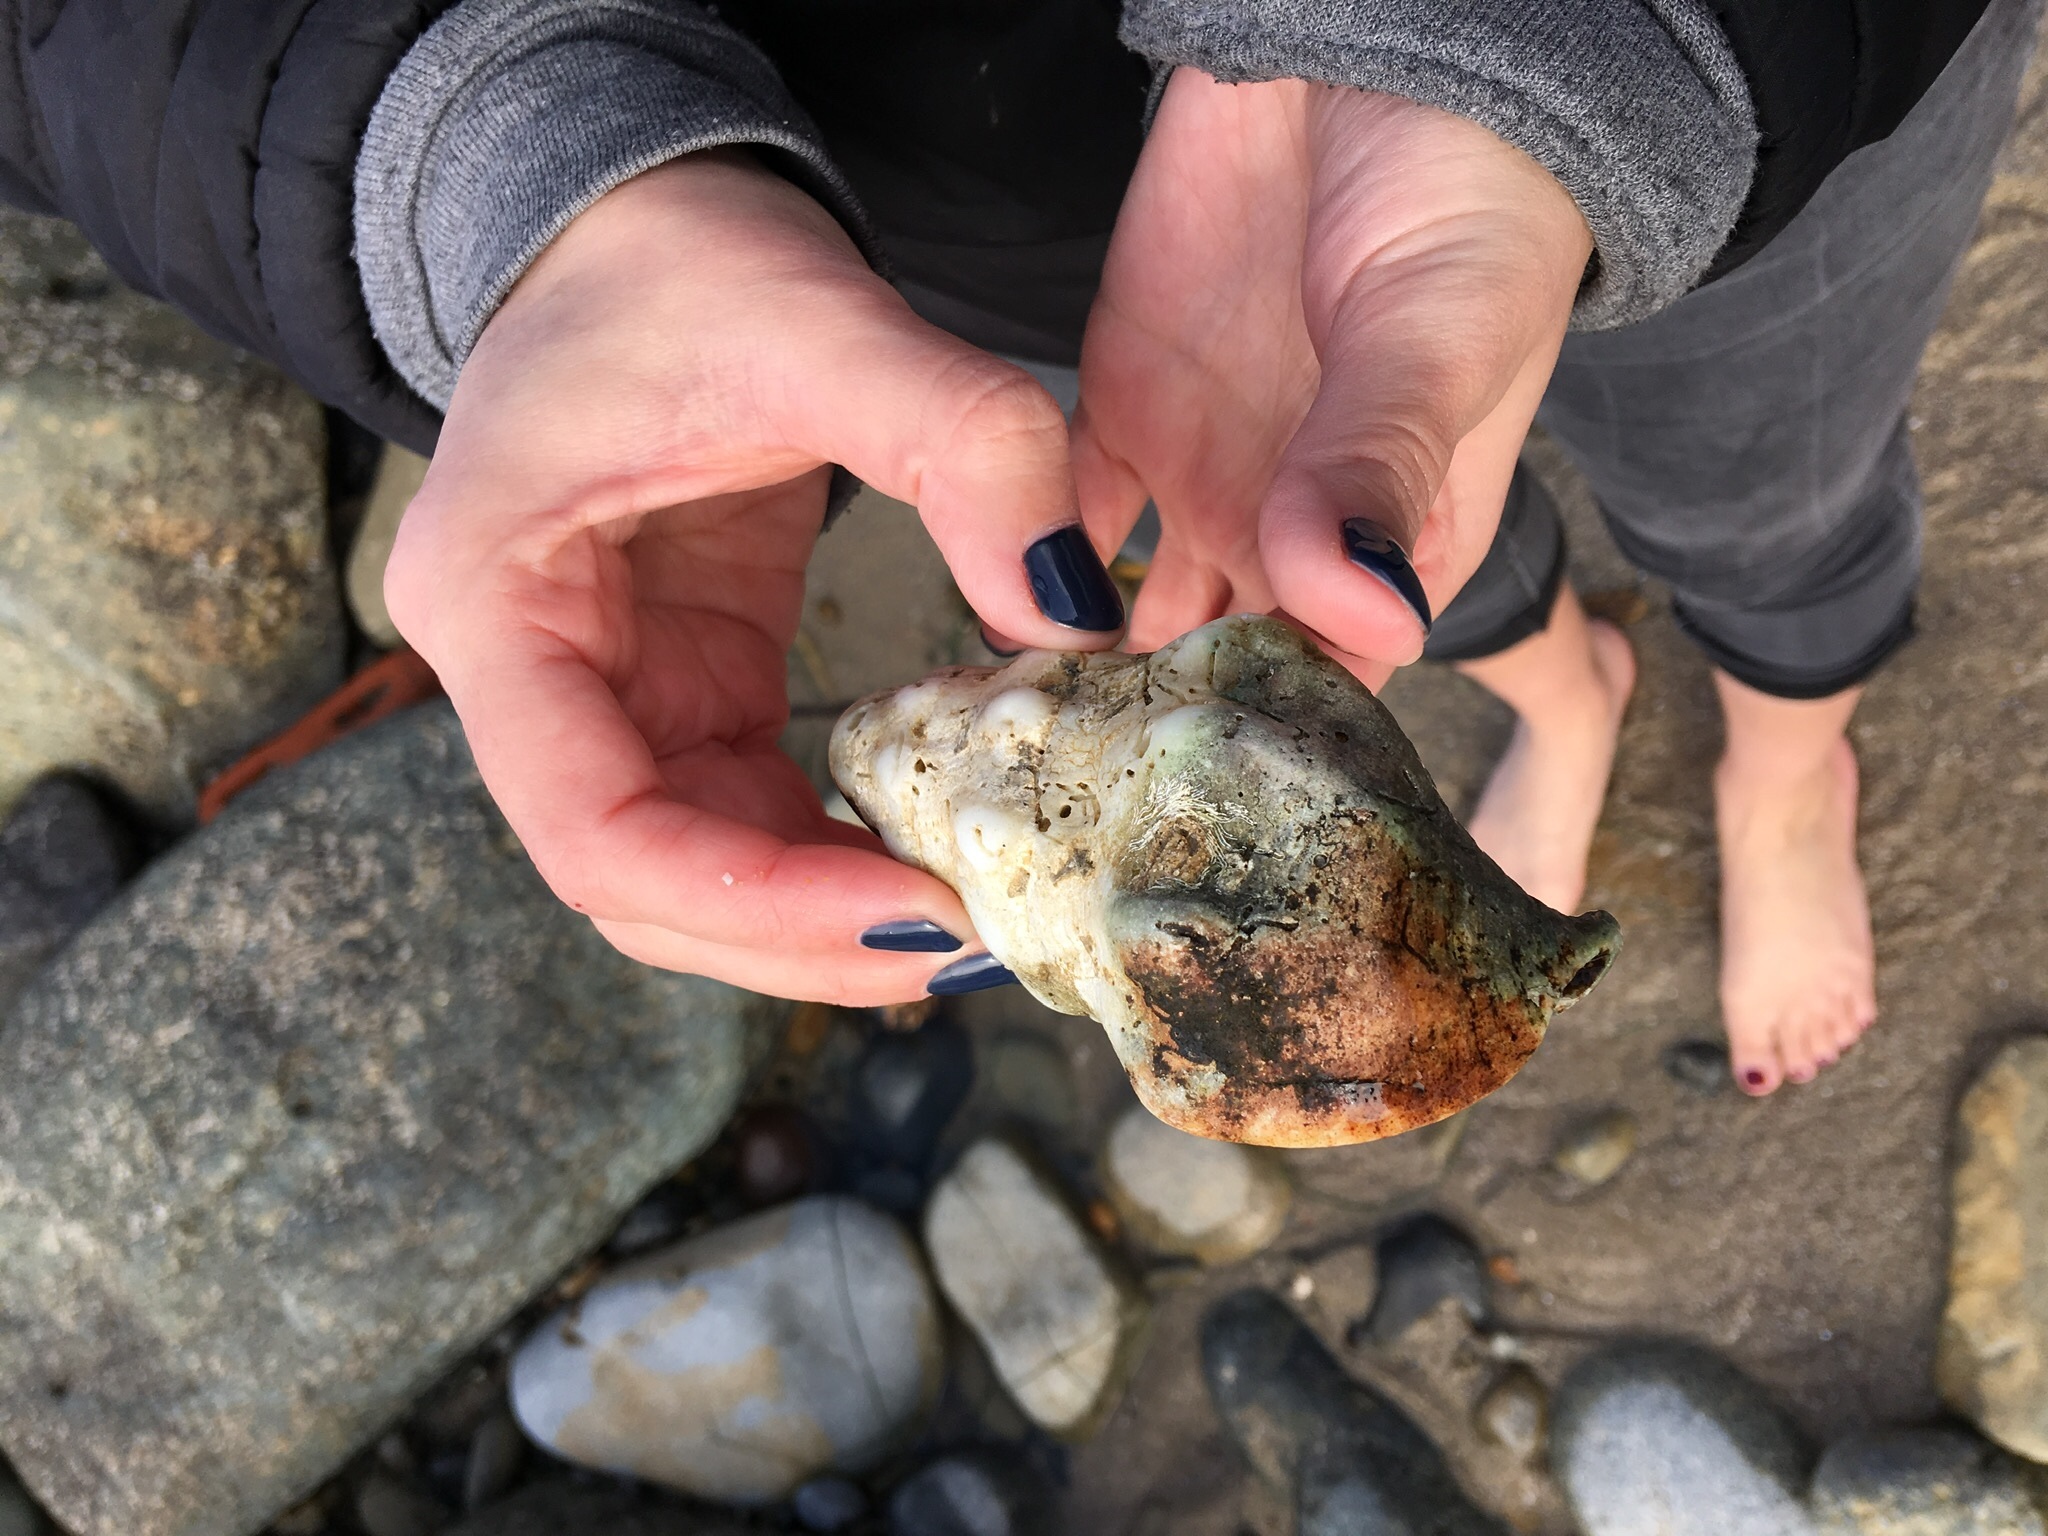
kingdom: Animalia
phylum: Mollusca
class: Gastropoda
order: Neogastropoda
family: Austrosiphonidae
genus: Kelletia
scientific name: Kelletia kelletii
